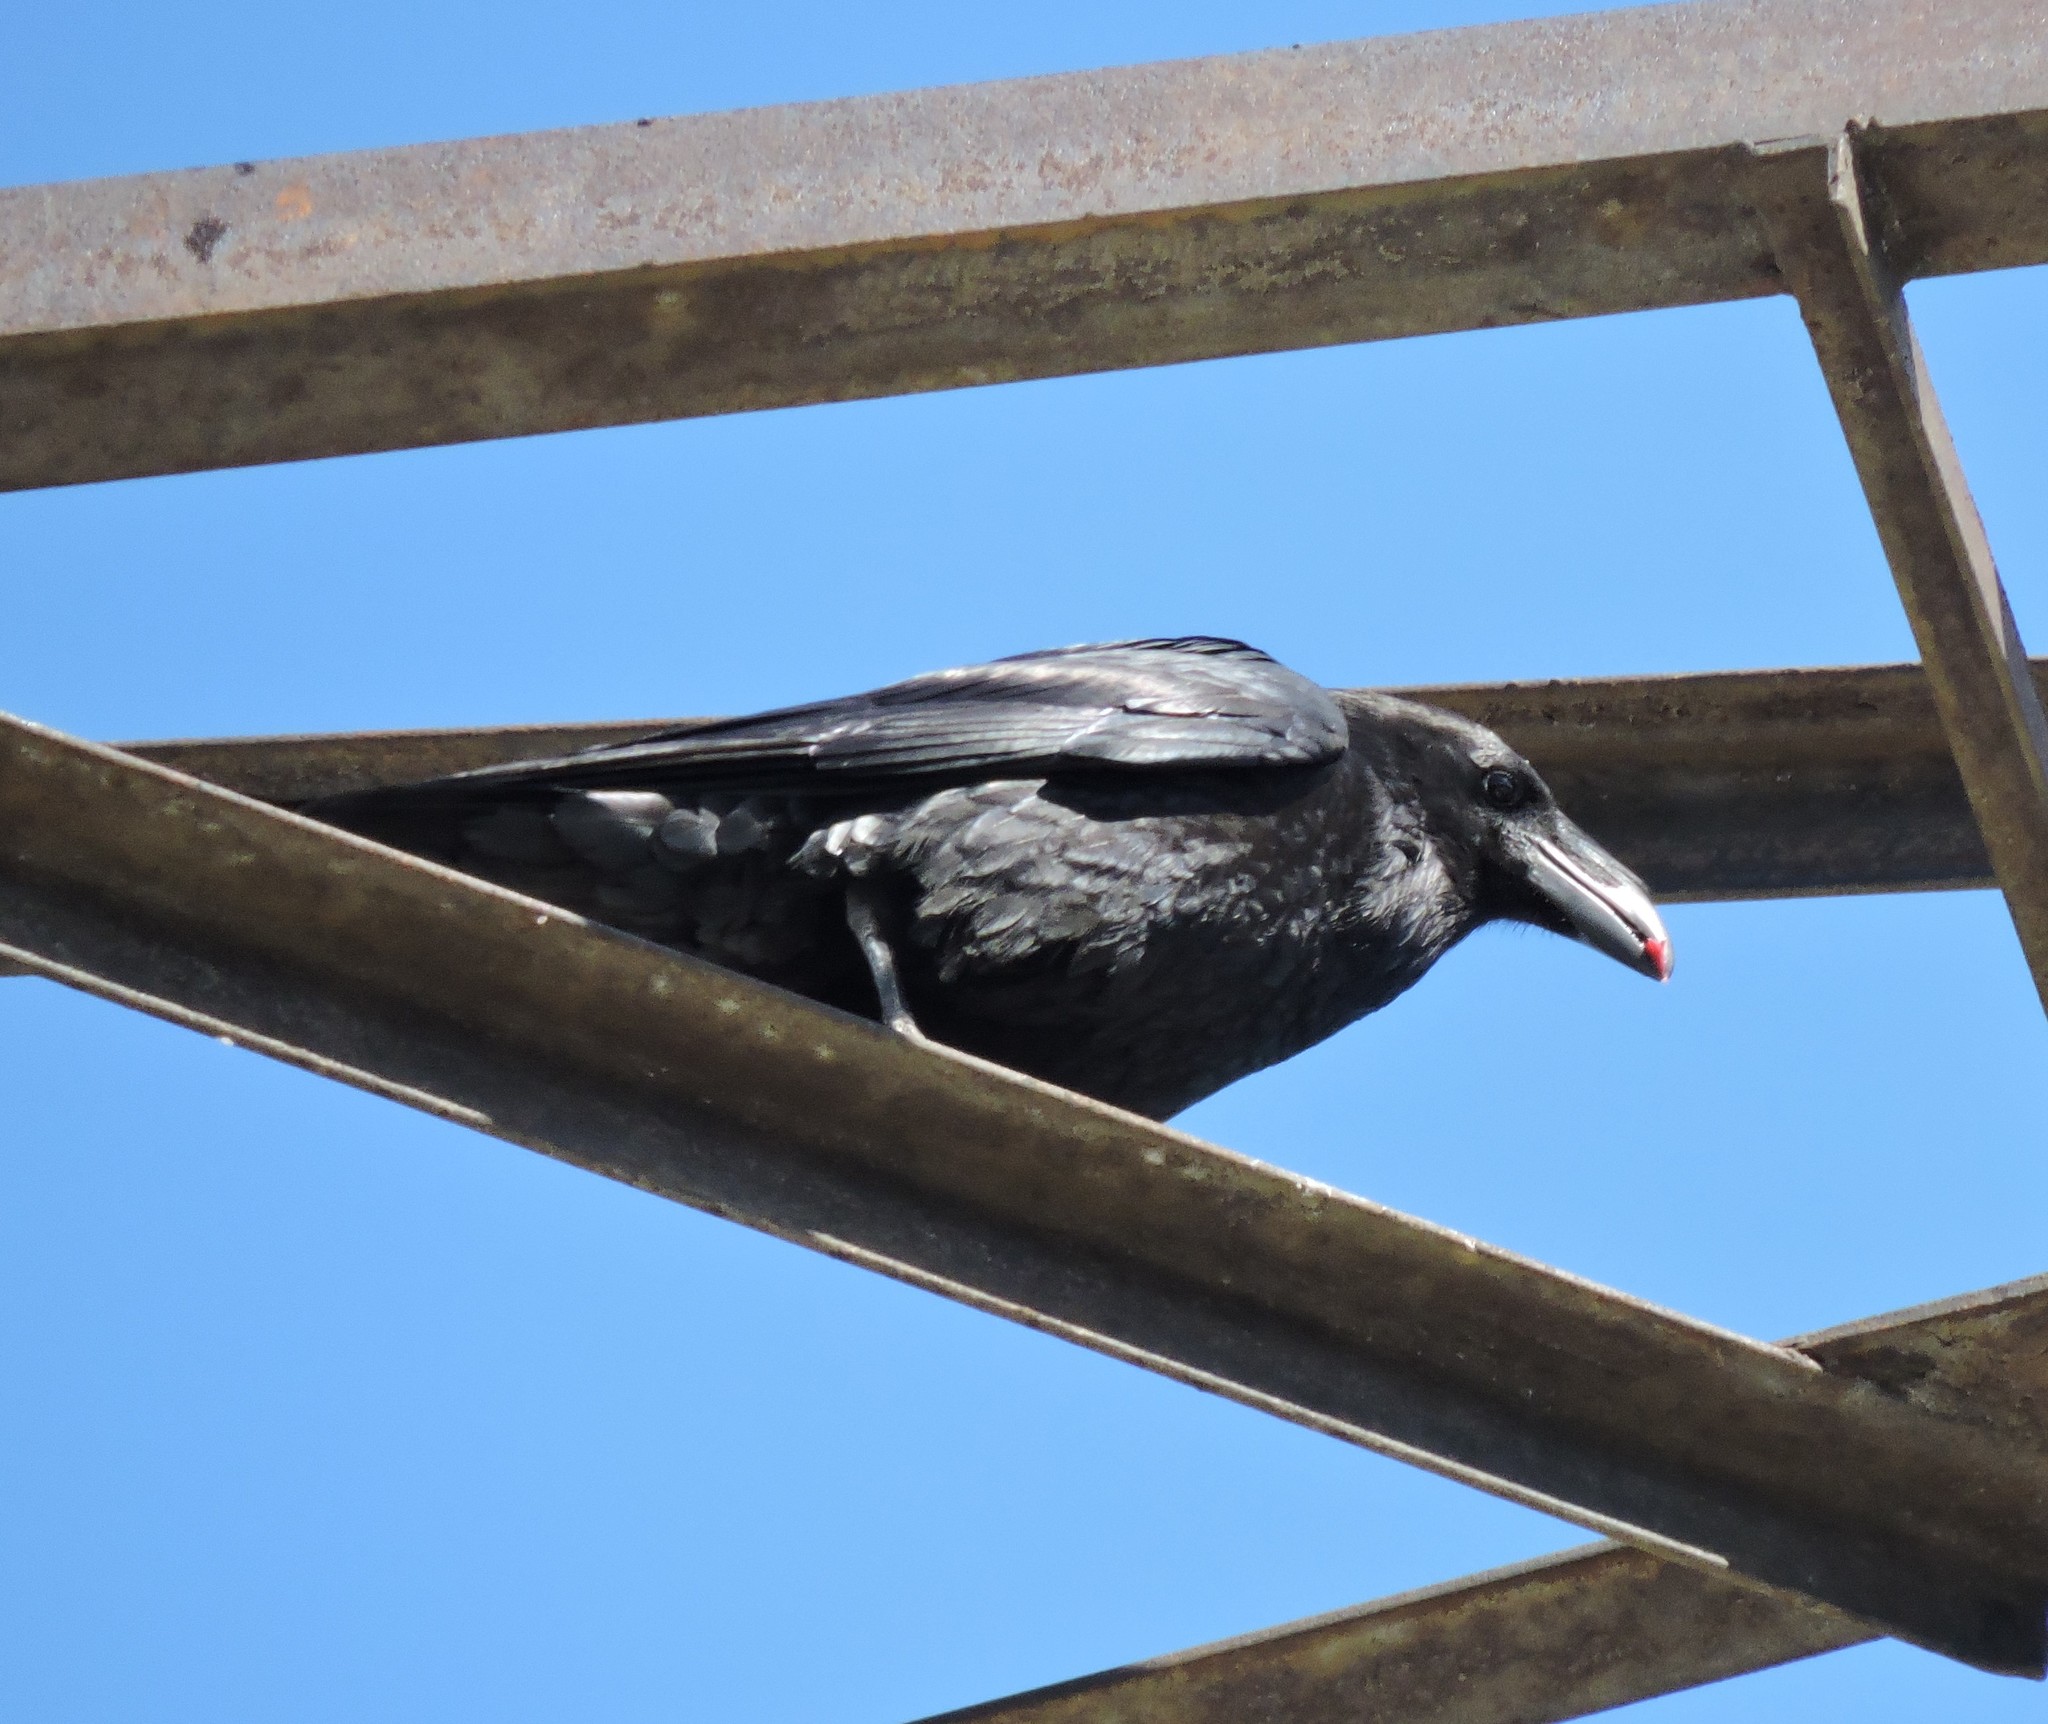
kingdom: Animalia
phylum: Chordata
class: Aves
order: Passeriformes
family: Corvidae
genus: Corvus
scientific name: Corvus corax
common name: Common raven
